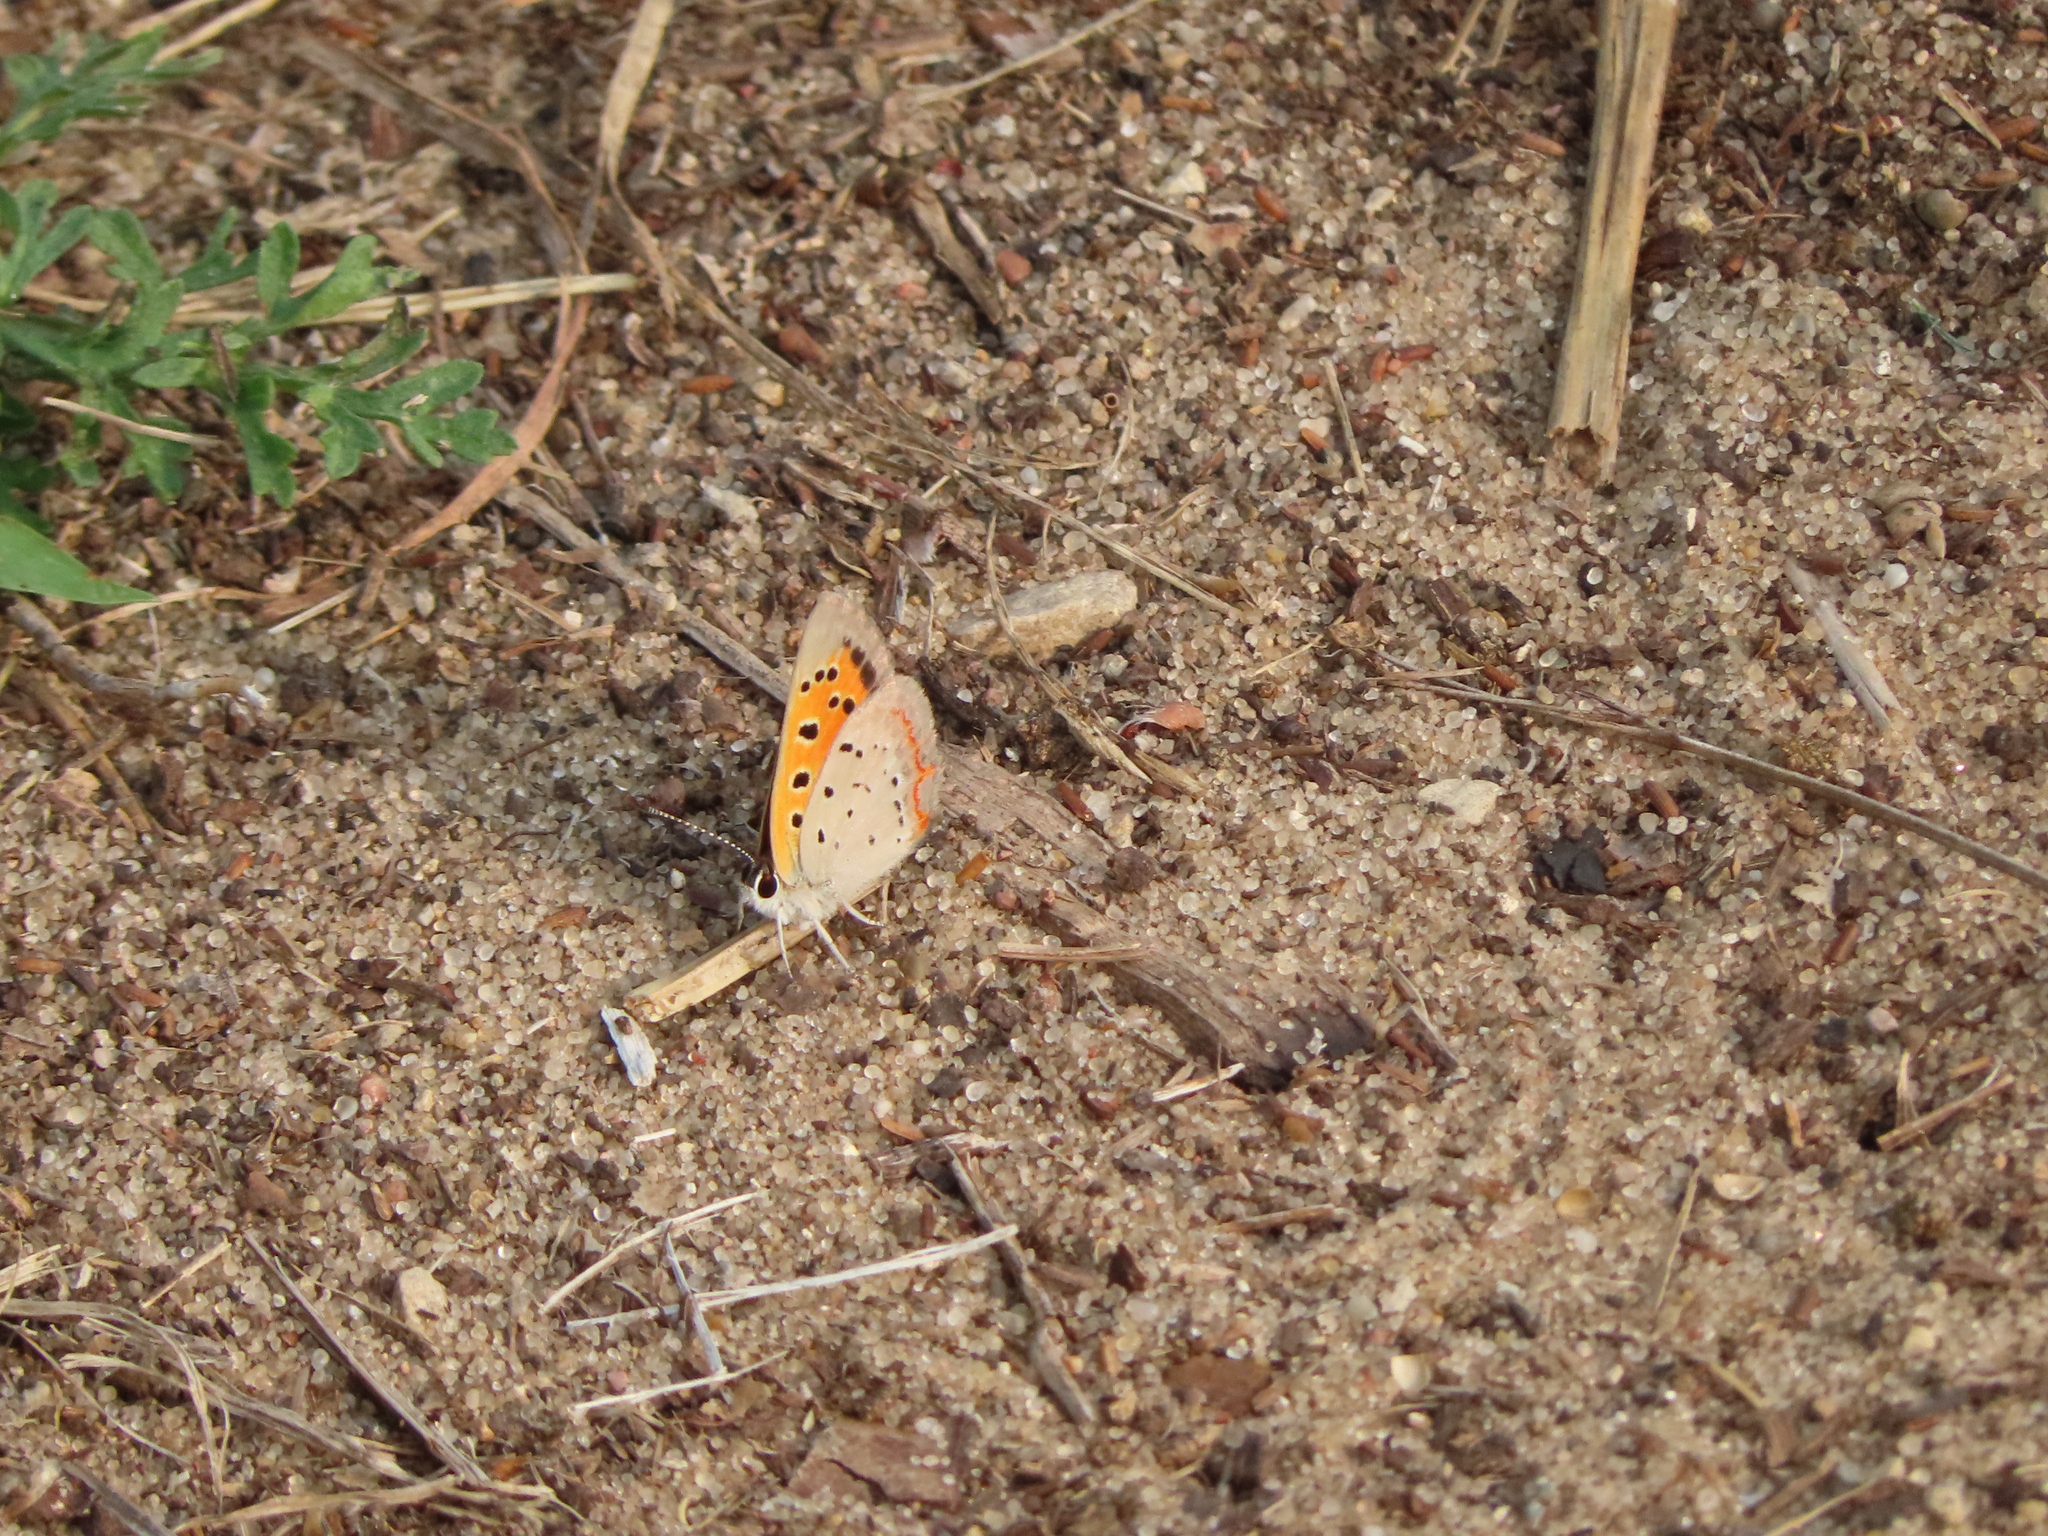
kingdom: Animalia
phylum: Arthropoda
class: Insecta
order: Lepidoptera
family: Lycaenidae
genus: Lycaena
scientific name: Lycaena hypophlaeas
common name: American copper
